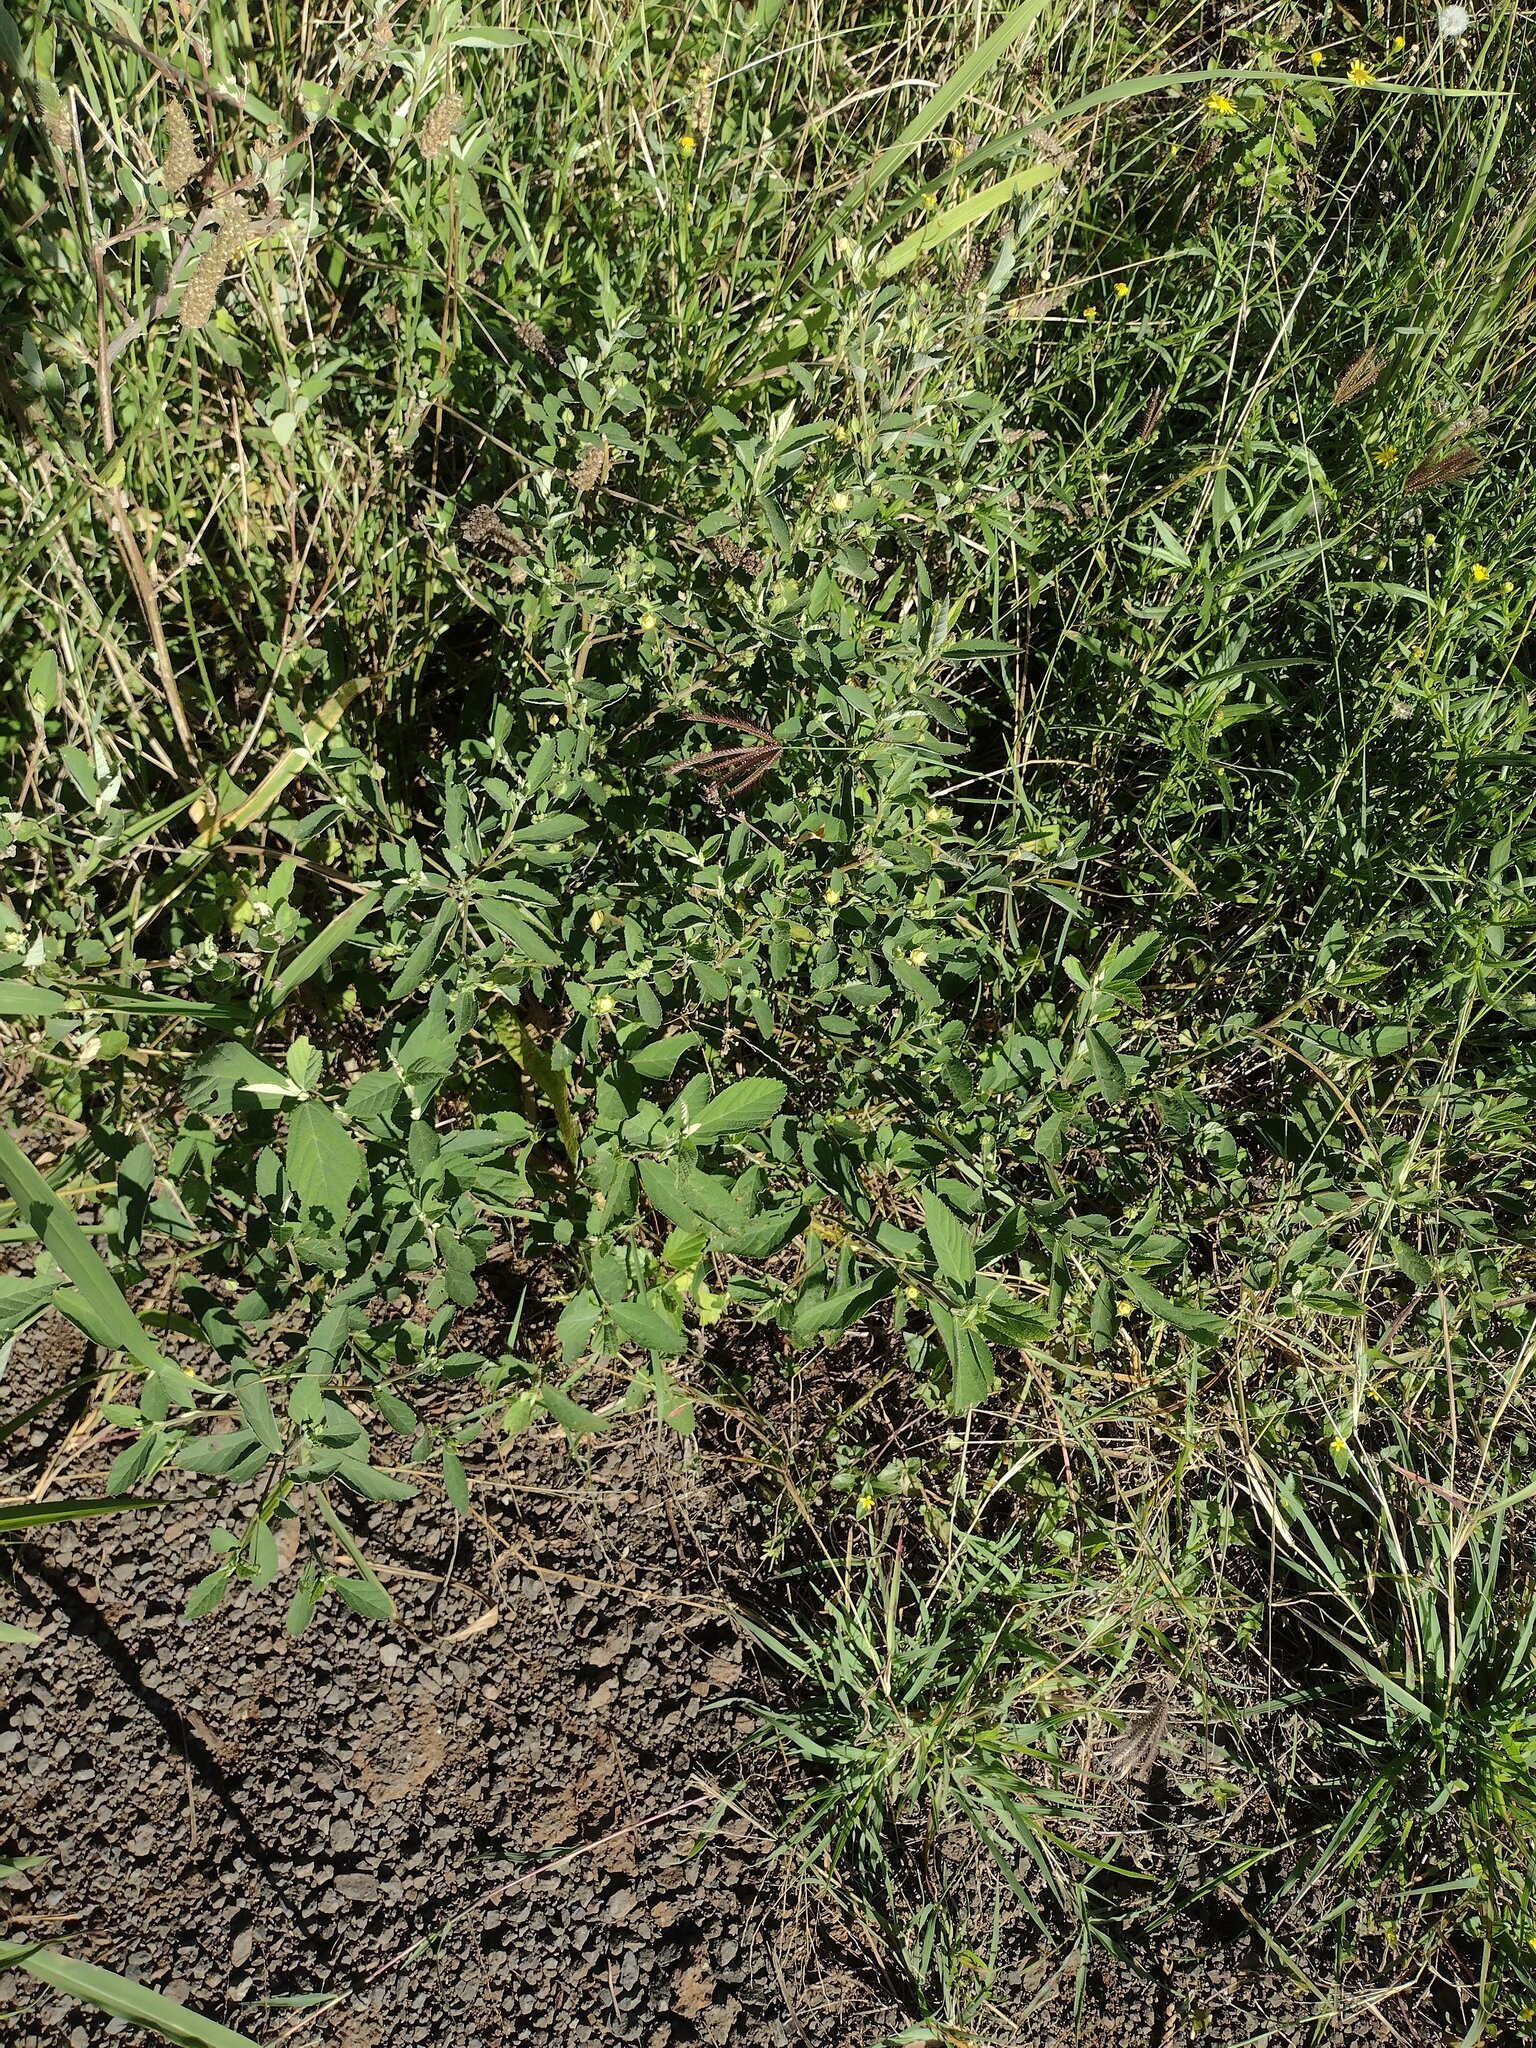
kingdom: Plantae
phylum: Tracheophyta
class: Magnoliopsida
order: Malvales
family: Malvaceae
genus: Sida
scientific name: Sida rhombifolia
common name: Queensland-hemp
